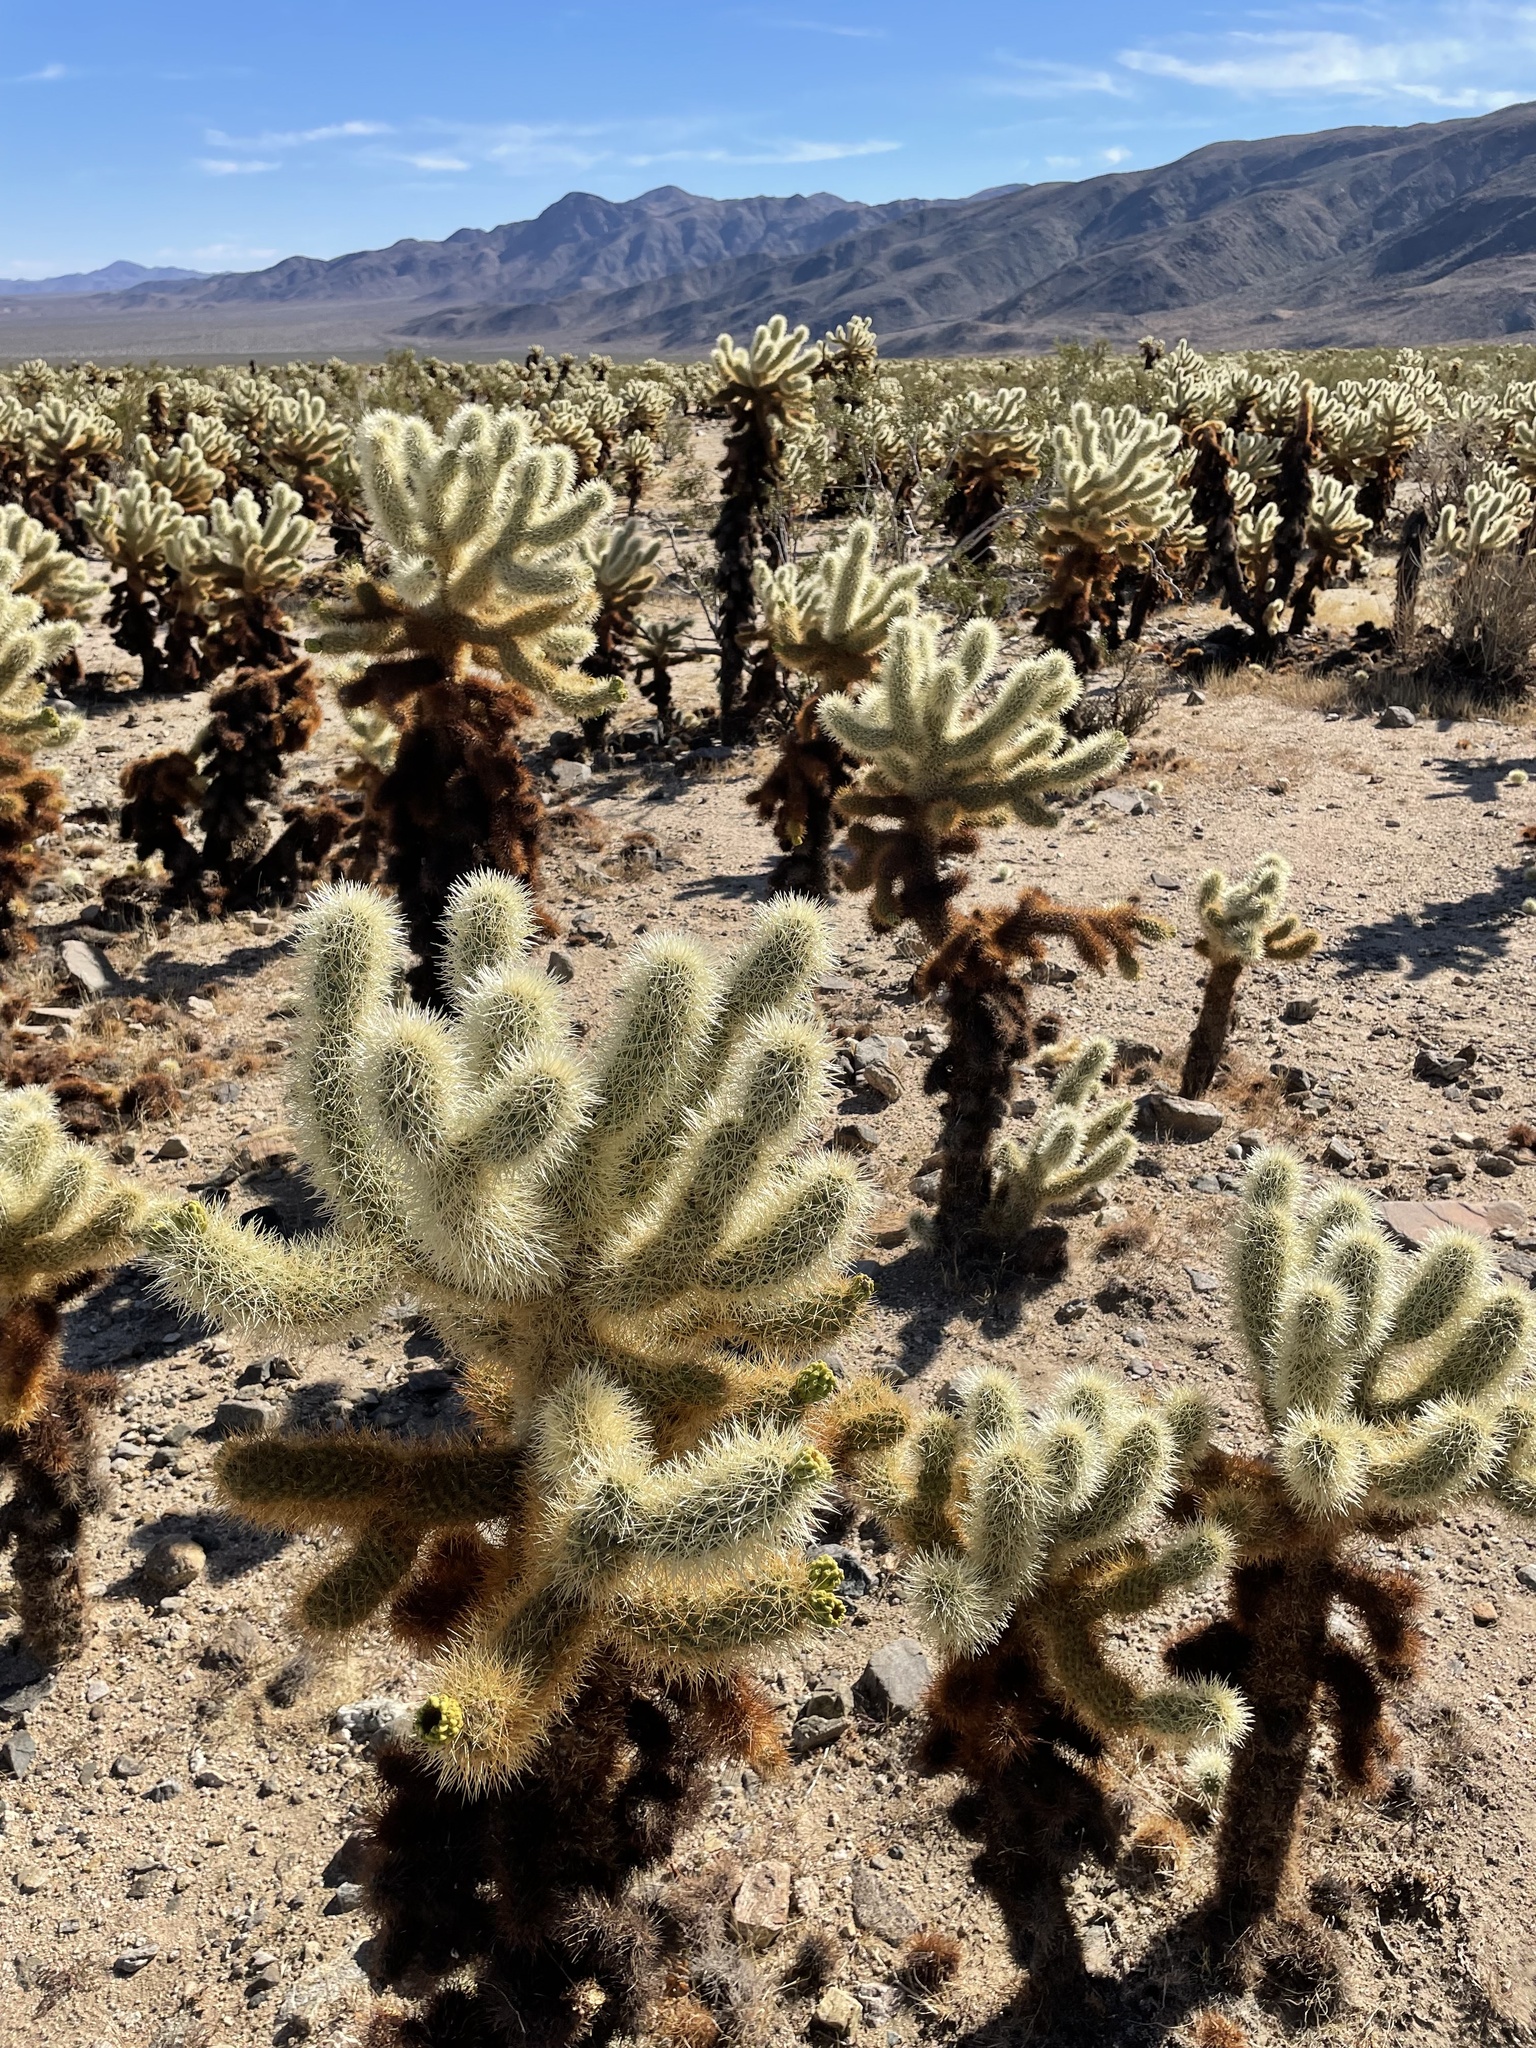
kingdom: Plantae
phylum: Tracheophyta
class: Magnoliopsida
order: Caryophyllales
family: Cactaceae
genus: Cylindropuntia
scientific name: Cylindropuntia fosbergii
